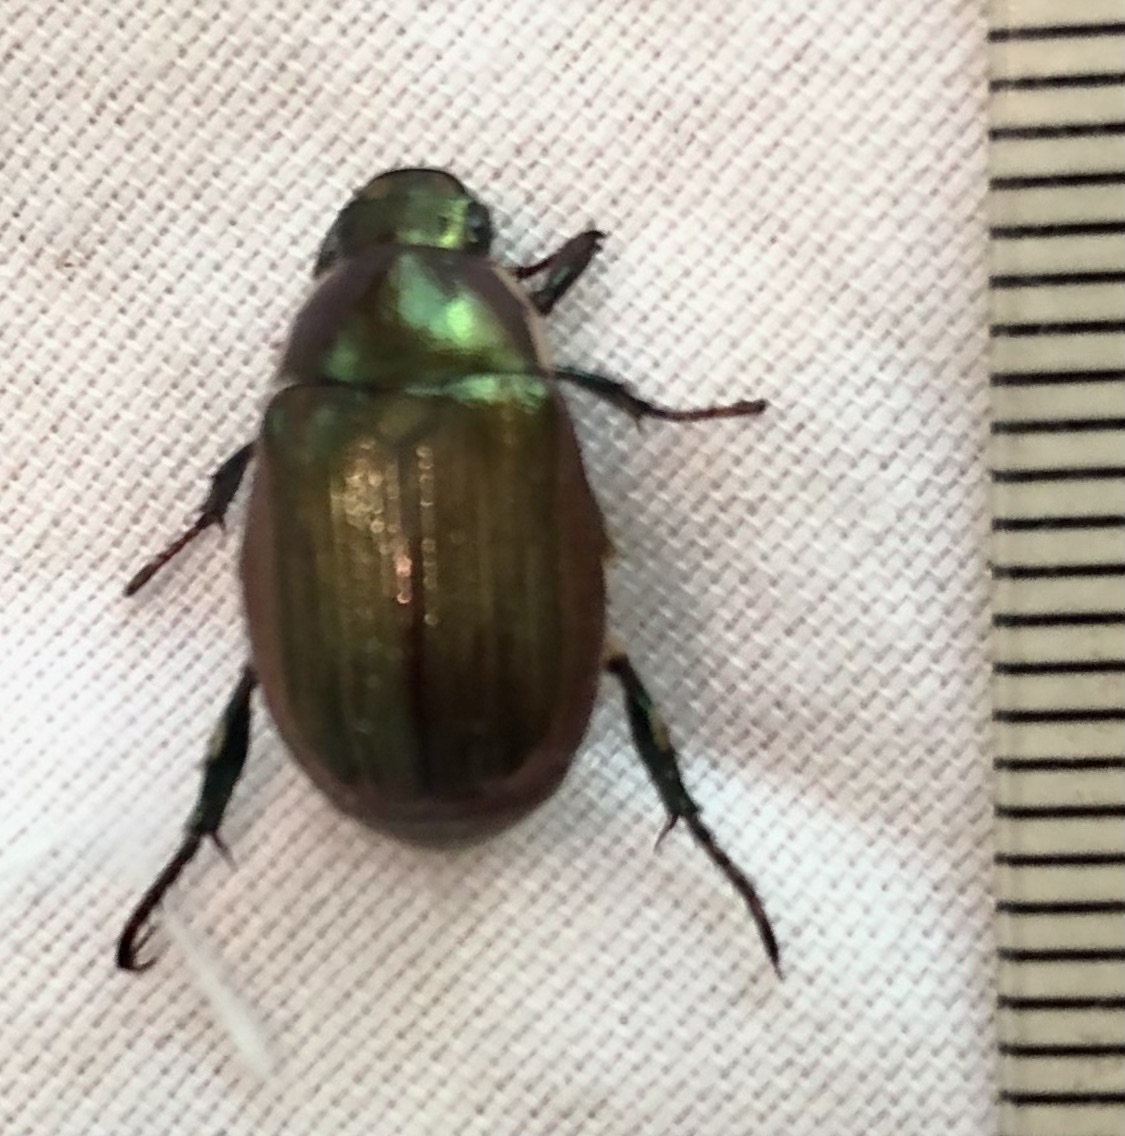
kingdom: Animalia
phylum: Arthropoda
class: Insecta
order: Coleoptera
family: Scarabaeidae
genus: Callistethus
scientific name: Callistethus marginatus
